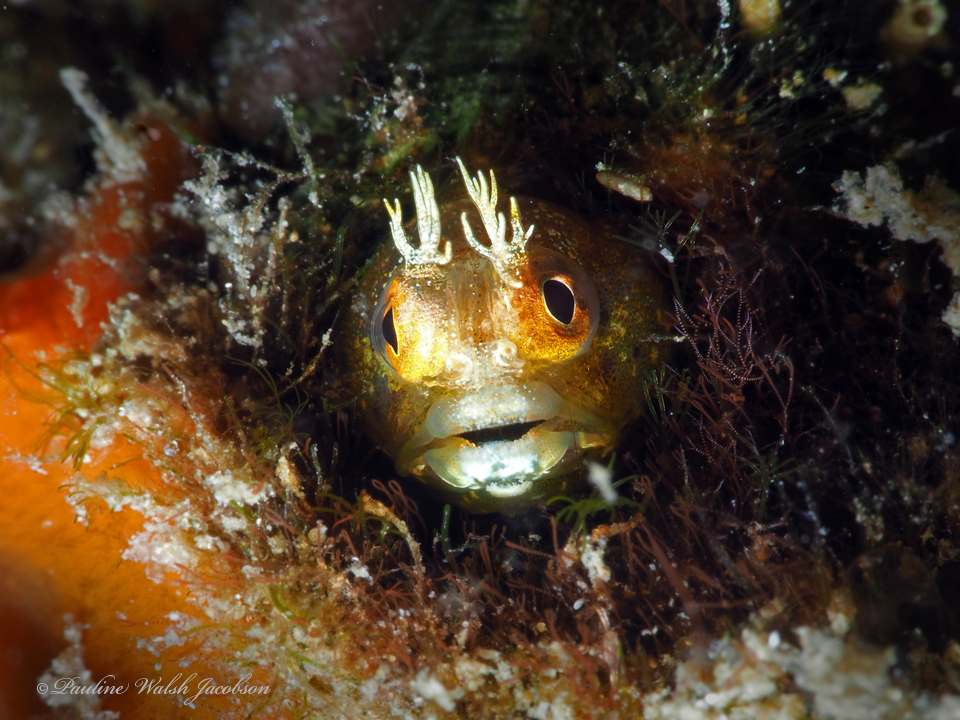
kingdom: Animalia
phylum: Chordata
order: Perciformes
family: Chaenopsidae
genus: Acanthemblemaria
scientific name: Acanthemblemaria aspera
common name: Roughhead blenny
